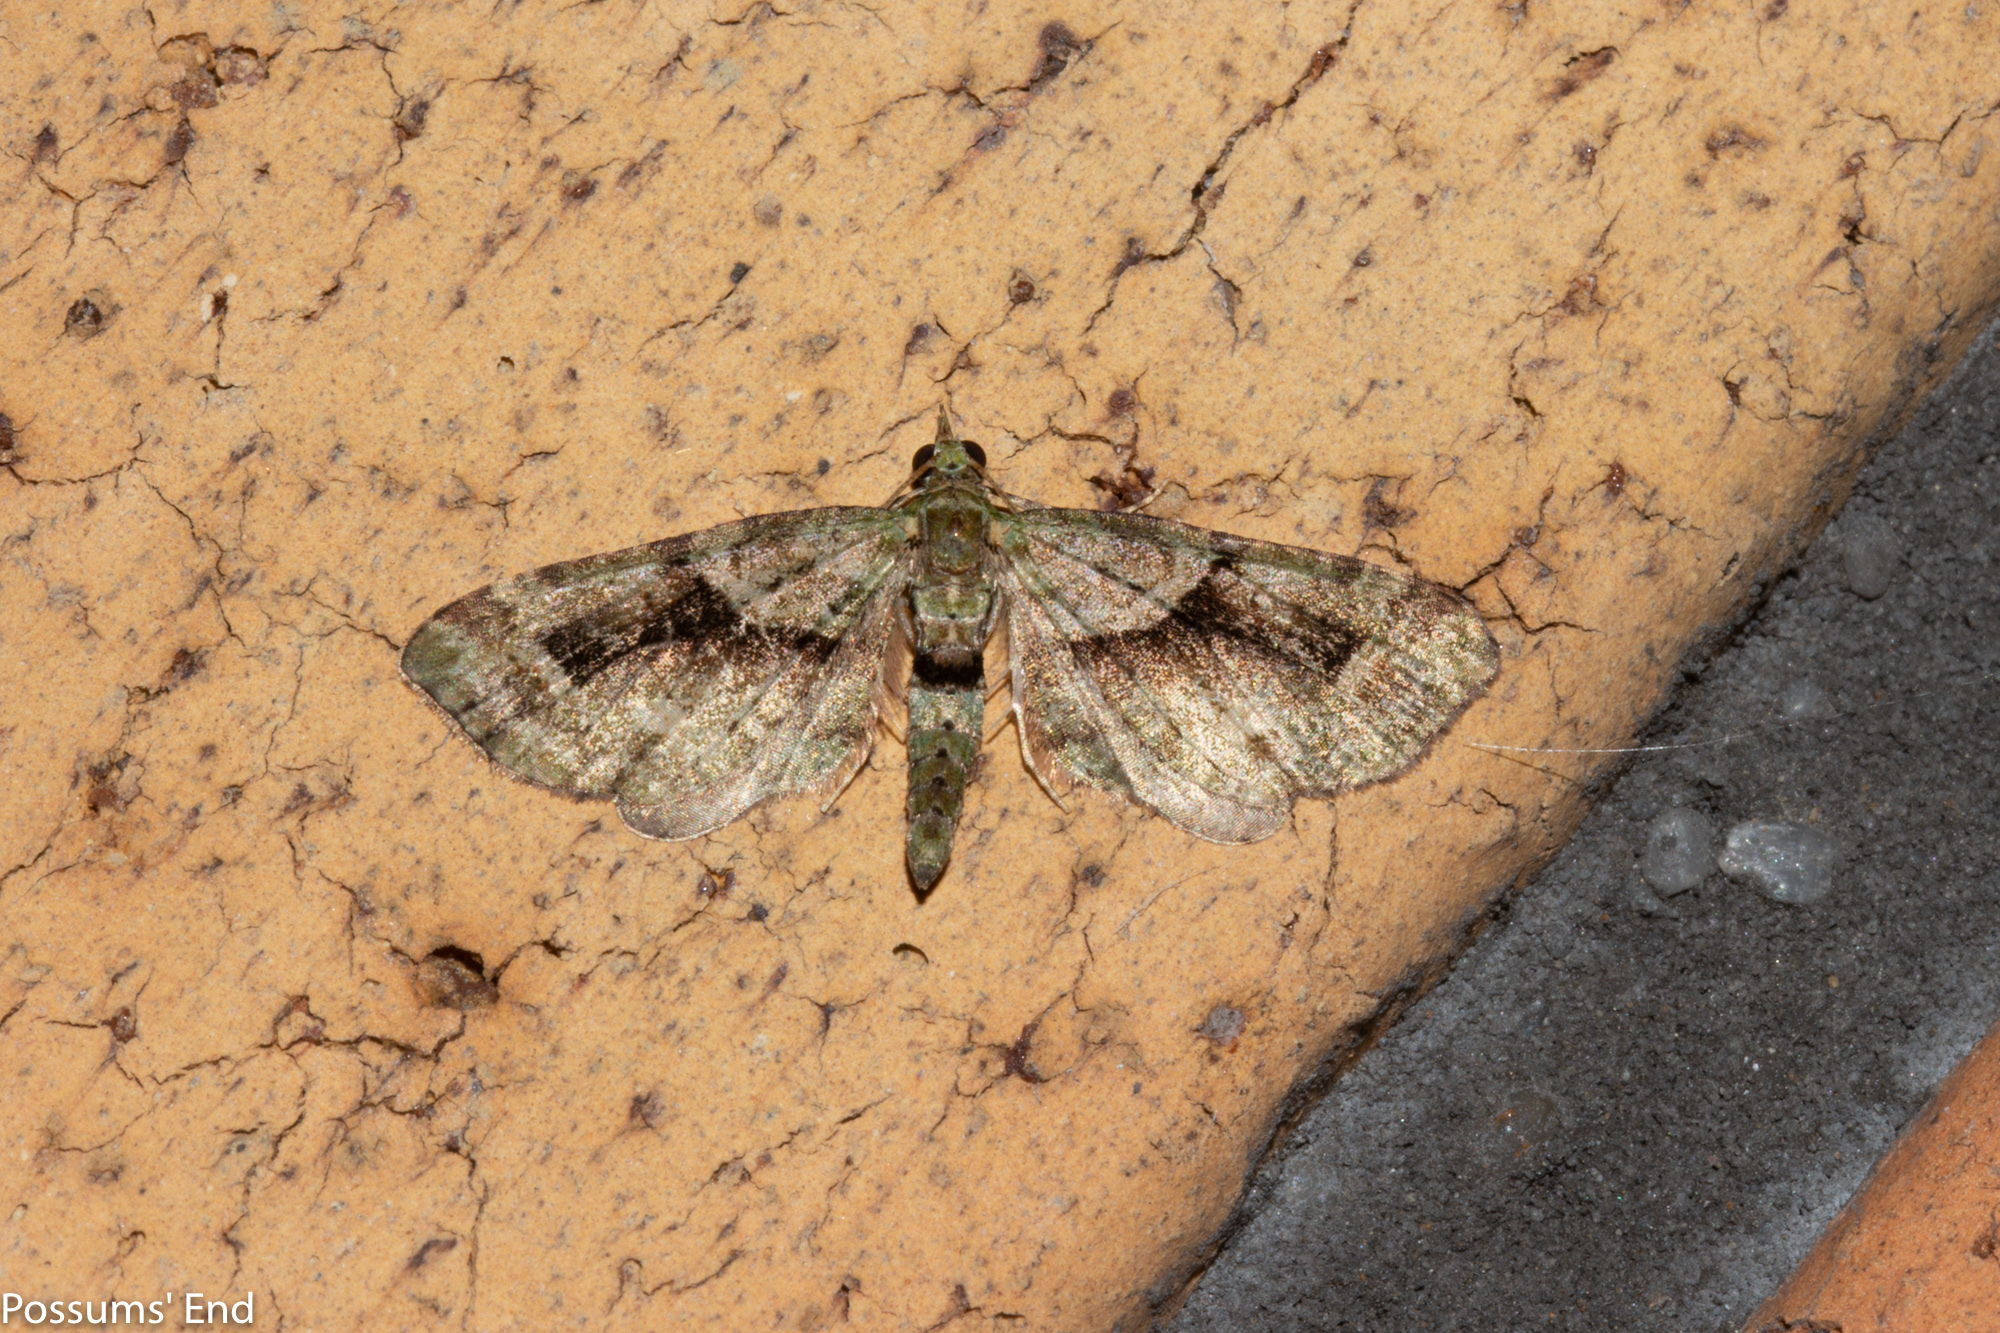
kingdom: Animalia
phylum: Arthropoda
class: Insecta
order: Lepidoptera
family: Geometridae
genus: Idaea
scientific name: Idaea mutanda
